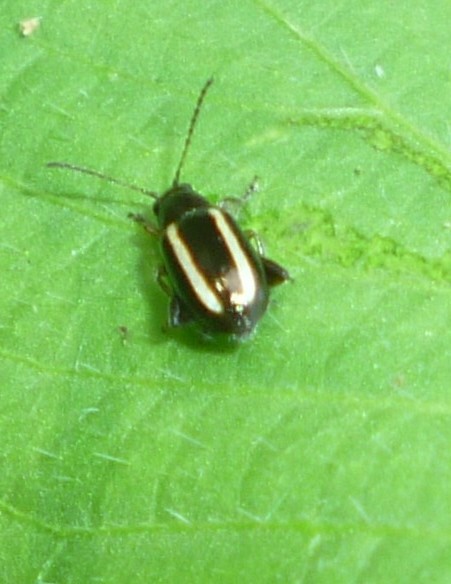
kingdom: Animalia
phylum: Arthropoda
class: Insecta
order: Coleoptera
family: Chrysomelidae
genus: Systena
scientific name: Systena elongata
